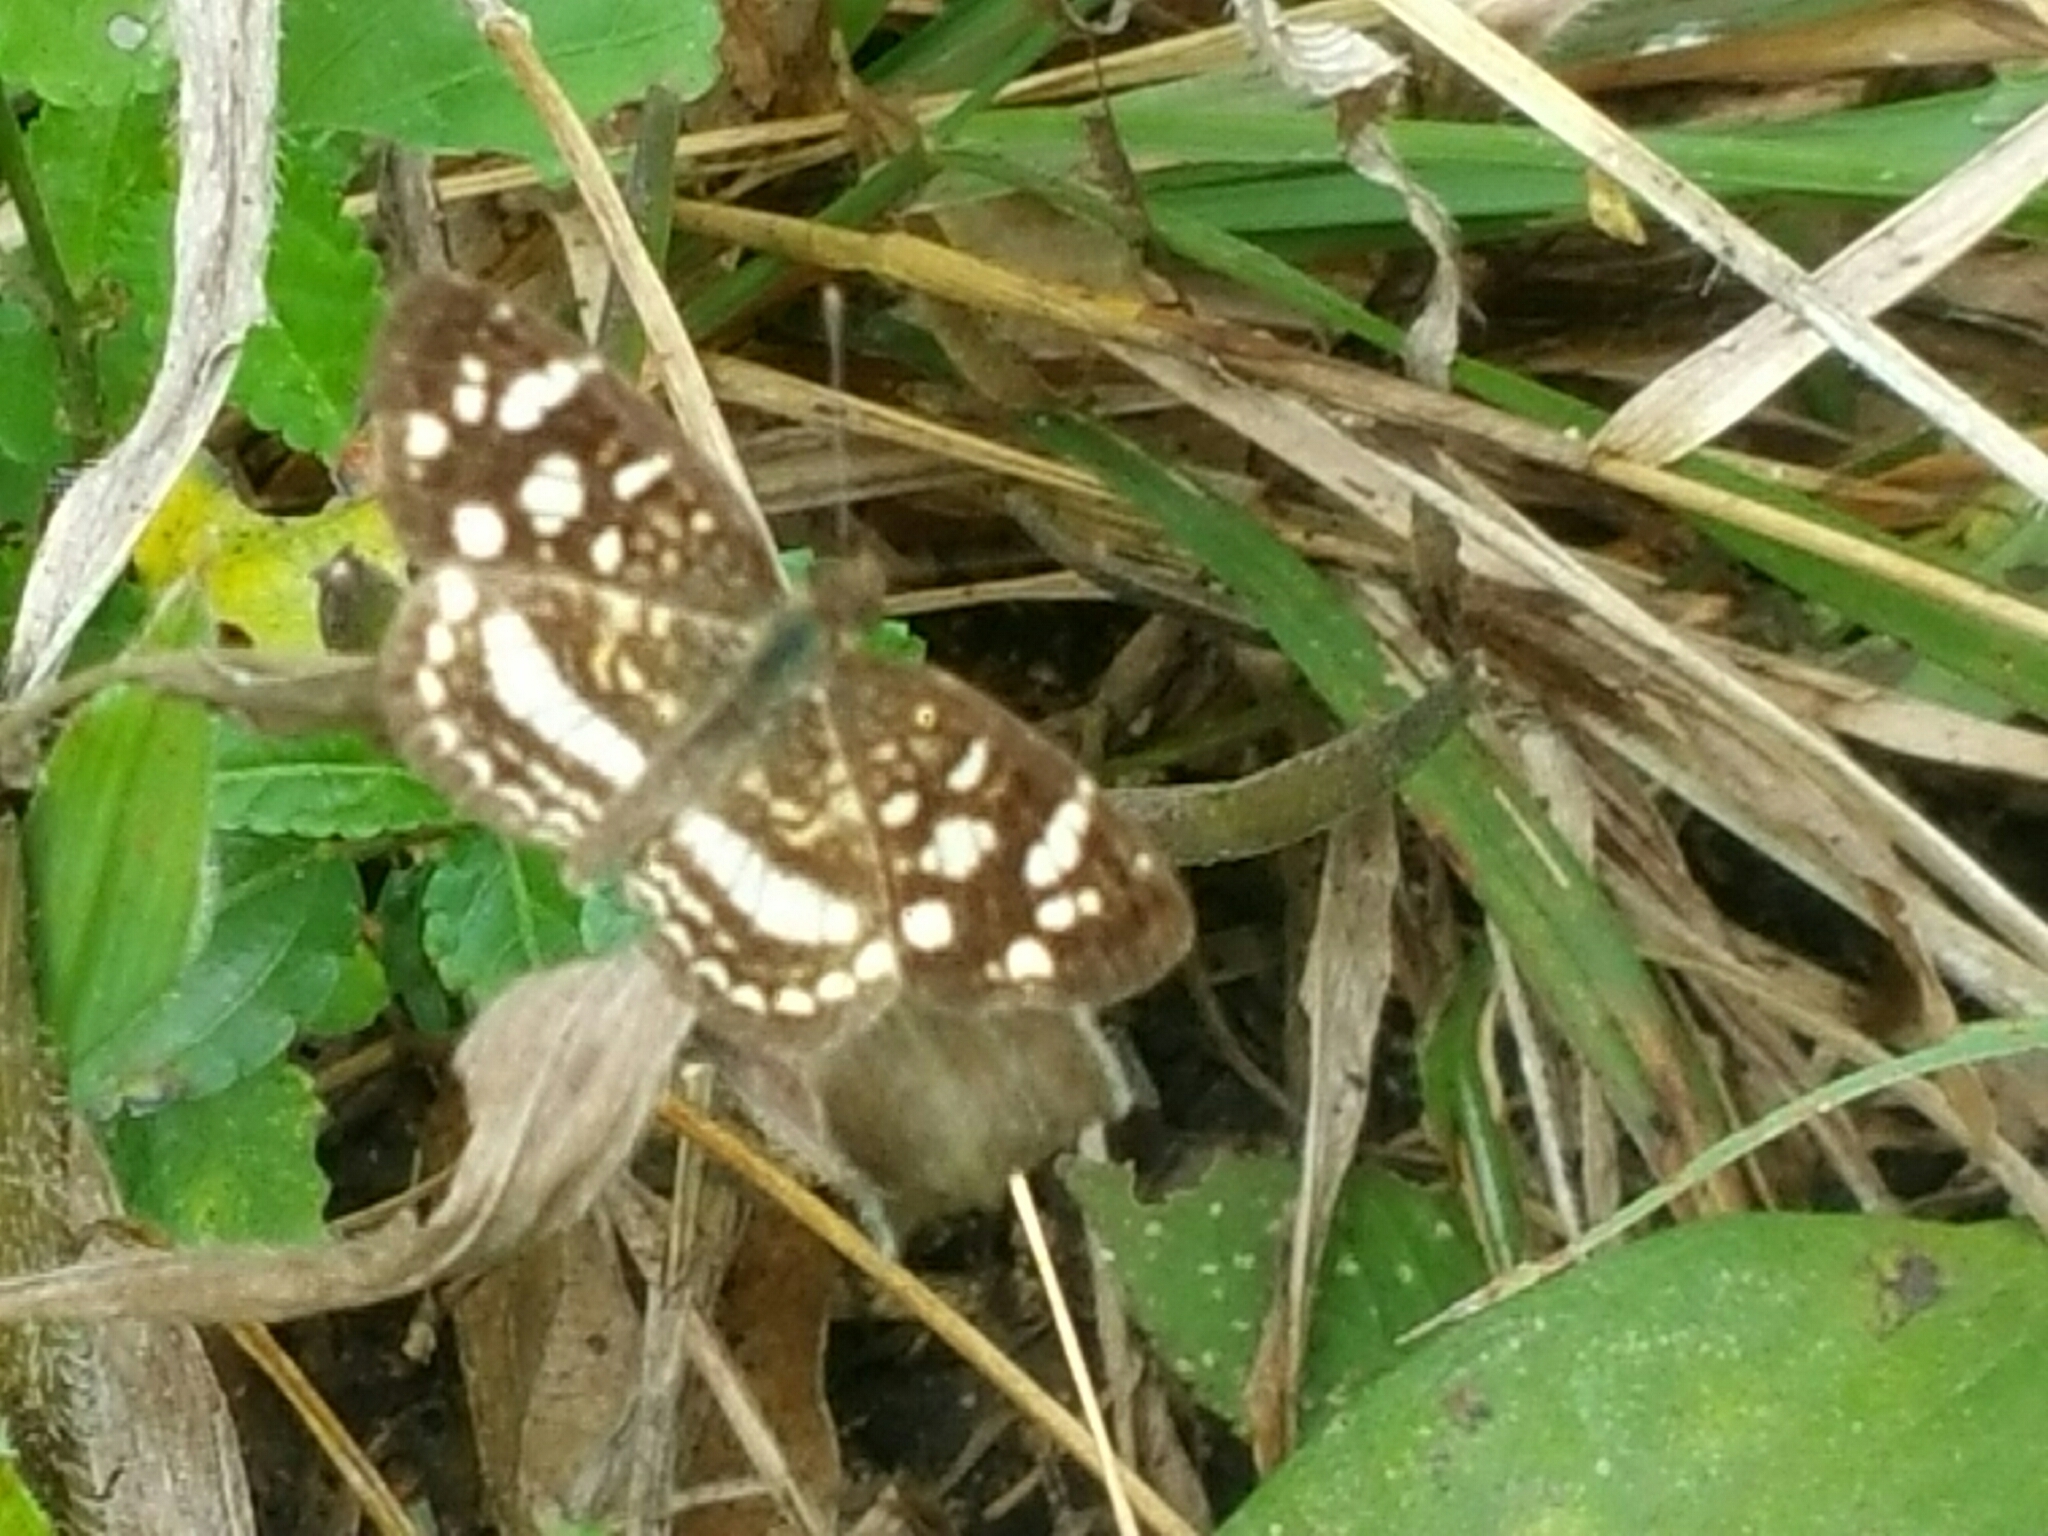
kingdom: Animalia
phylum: Arthropoda
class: Insecta
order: Lepidoptera
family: Nymphalidae
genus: Anthanassa
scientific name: Anthanassa tulcis
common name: Pale-banded crescent
